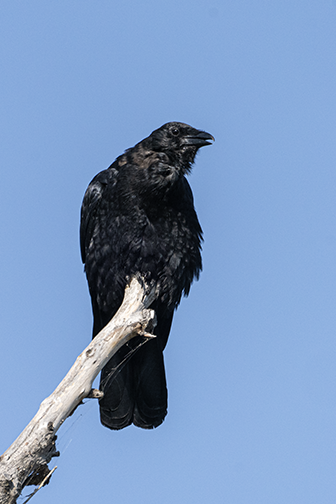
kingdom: Animalia
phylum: Chordata
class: Aves
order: Passeriformes
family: Corvidae
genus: Corvus
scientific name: Corvus corax
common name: Common raven
